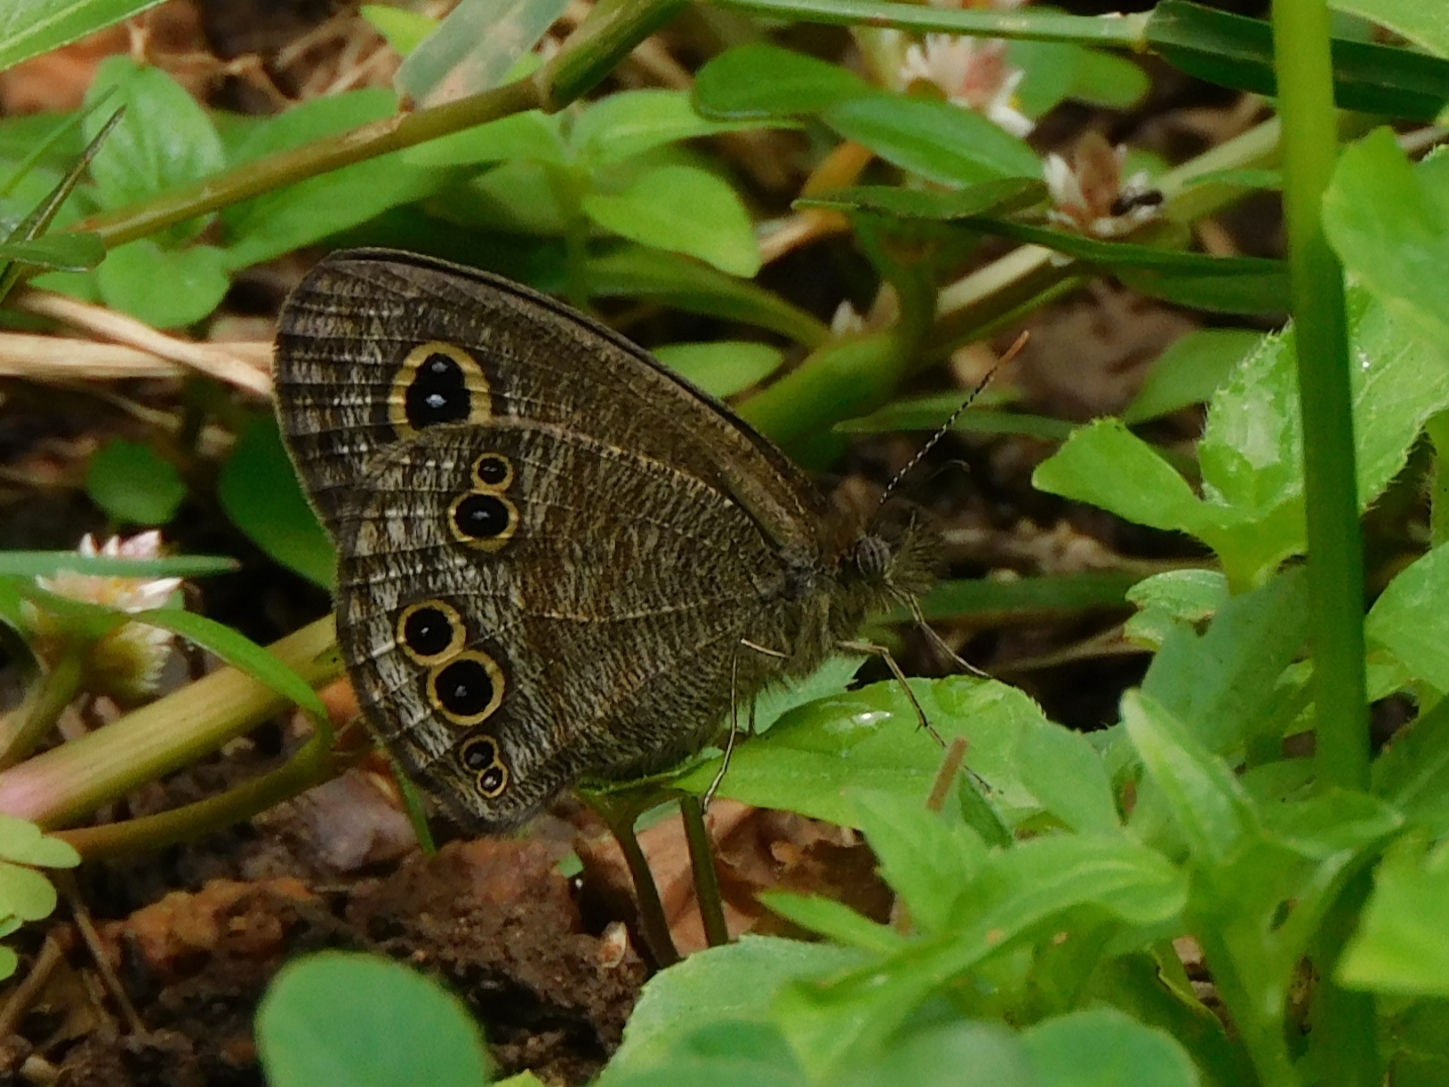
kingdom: Animalia
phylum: Arthropoda
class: Insecta
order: Lepidoptera
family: Nymphalidae
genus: Ypthima
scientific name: Ypthima baldus
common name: Common five-ring
